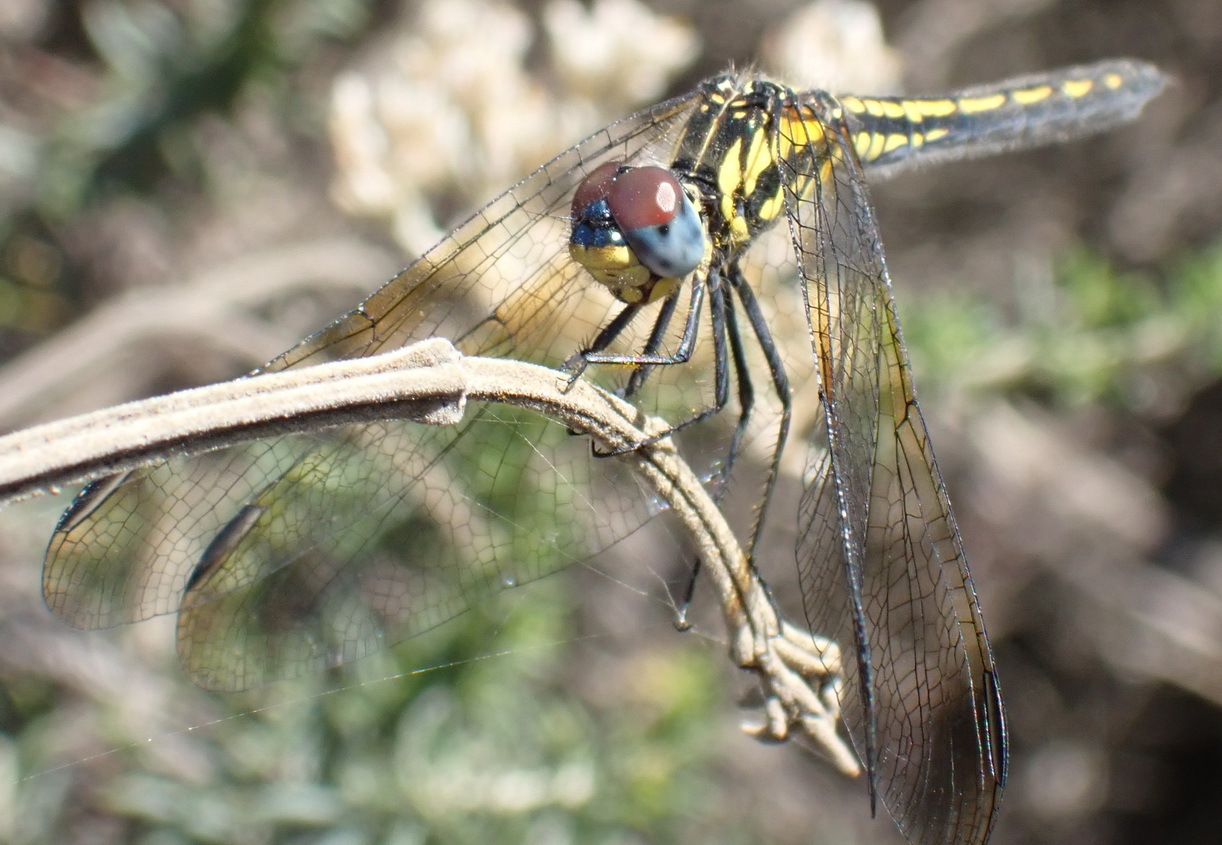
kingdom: Animalia
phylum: Arthropoda
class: Insecta
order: Odonata
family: Libellulidae
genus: Trithemis
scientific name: Trithemis stictica
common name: Jaunty dropwing
